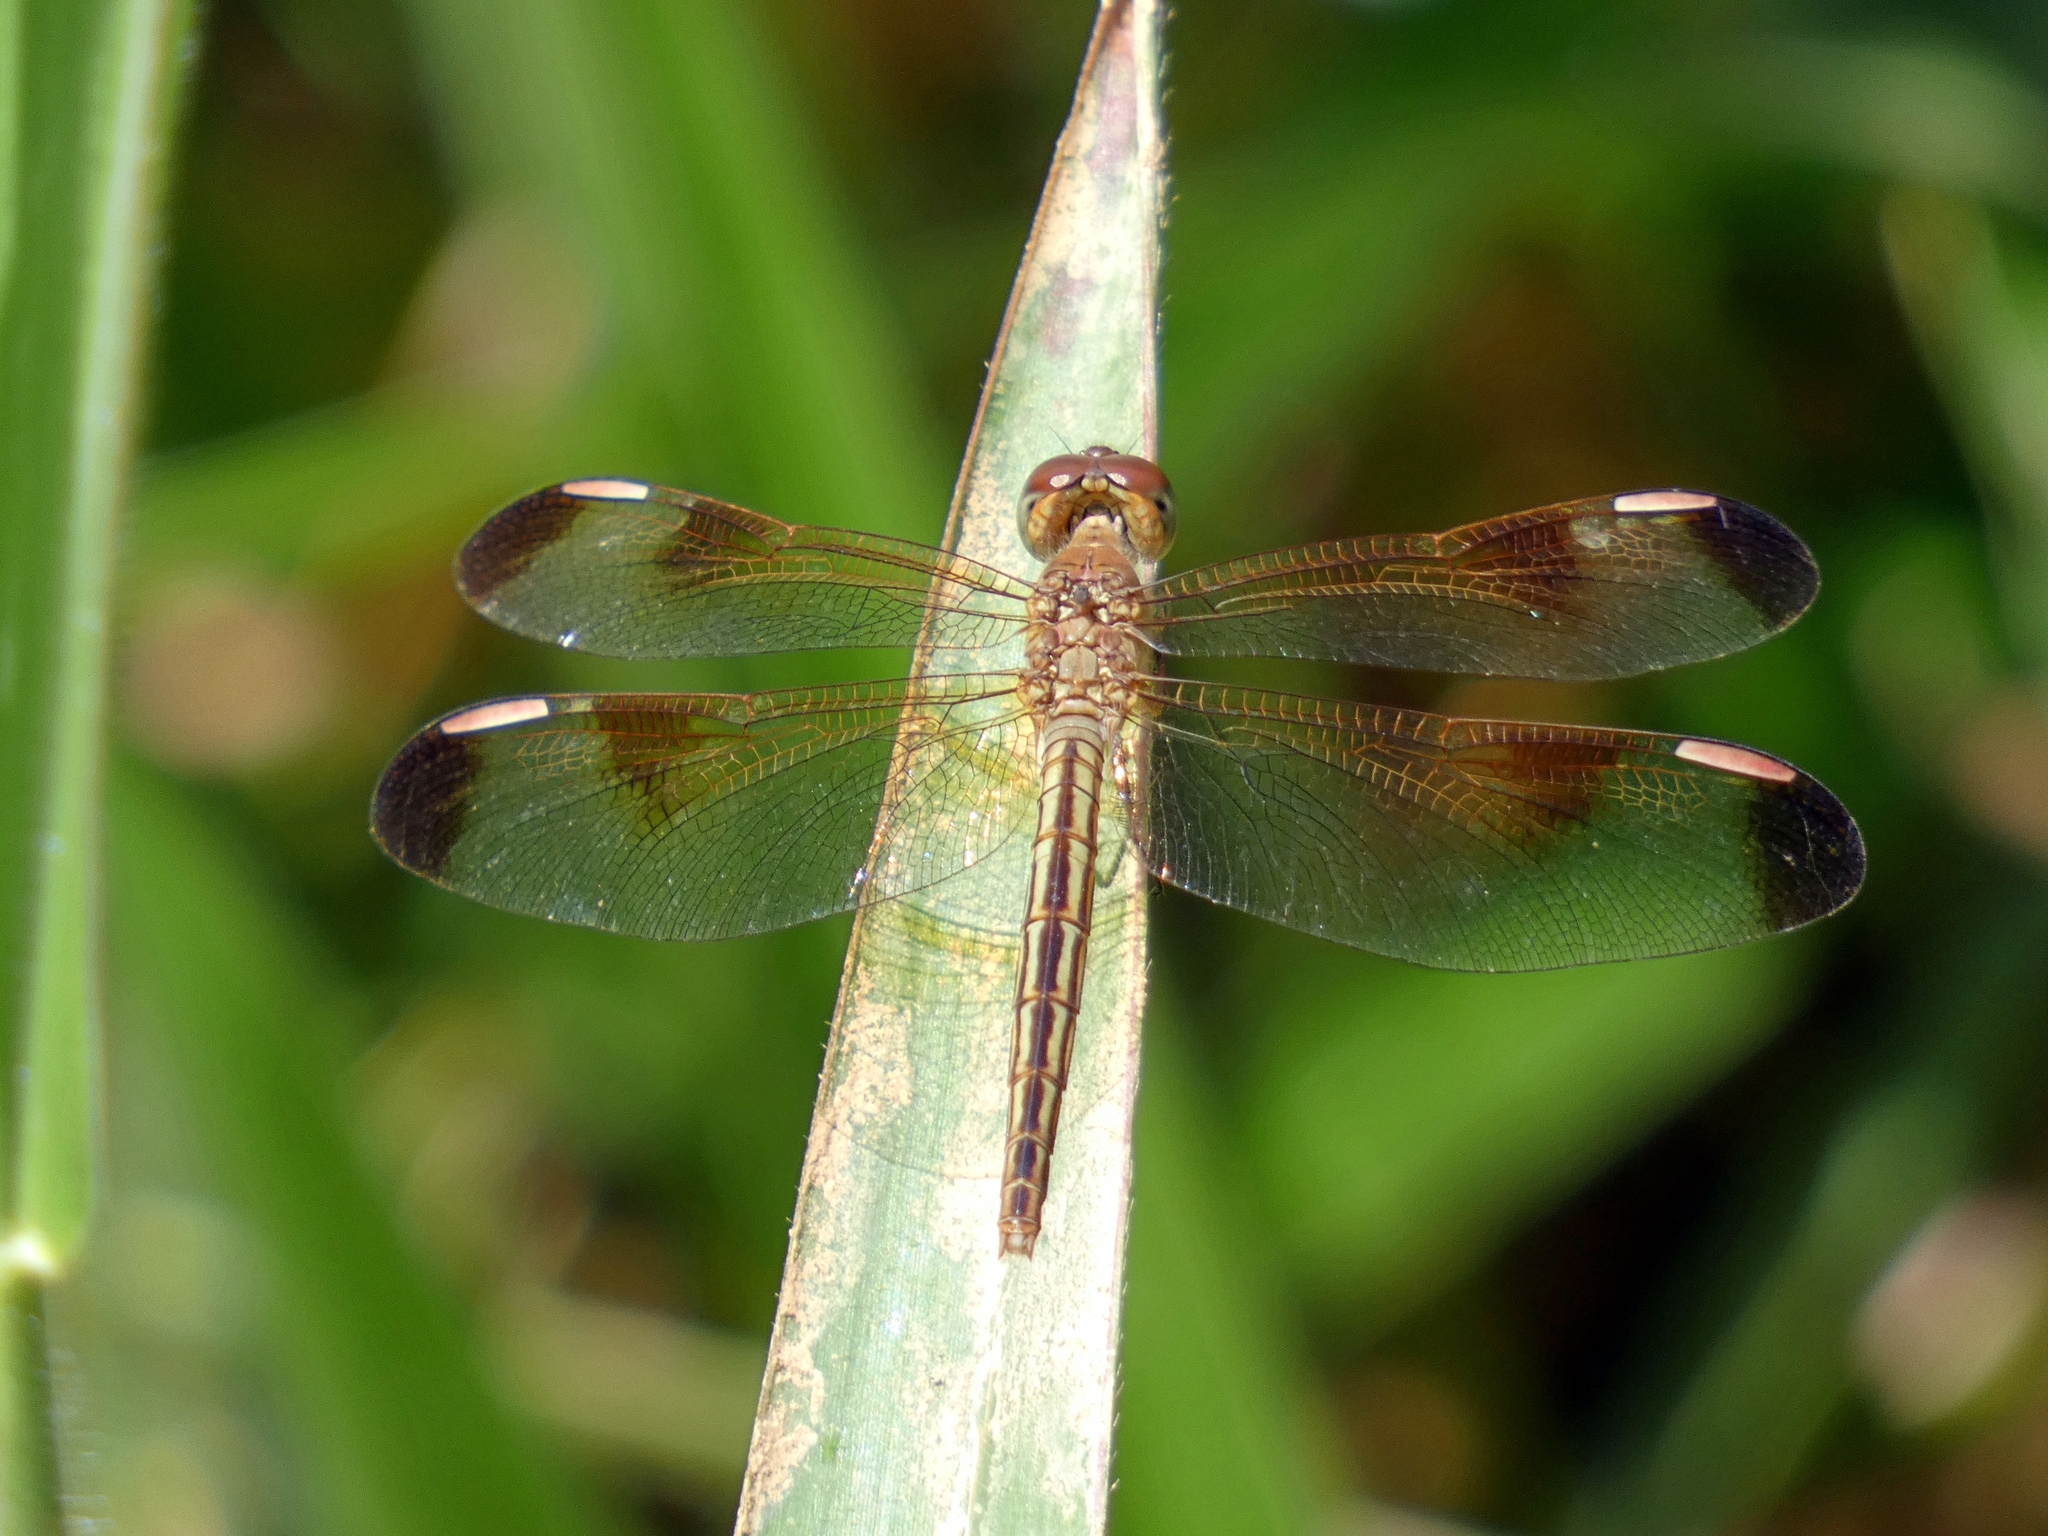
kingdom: Animalia
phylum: Arthropoda
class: Insecta
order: Odonata
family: Libellulidae
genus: Neurothemis
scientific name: Neurothemis stigmatizans
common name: Painted grasshawk
